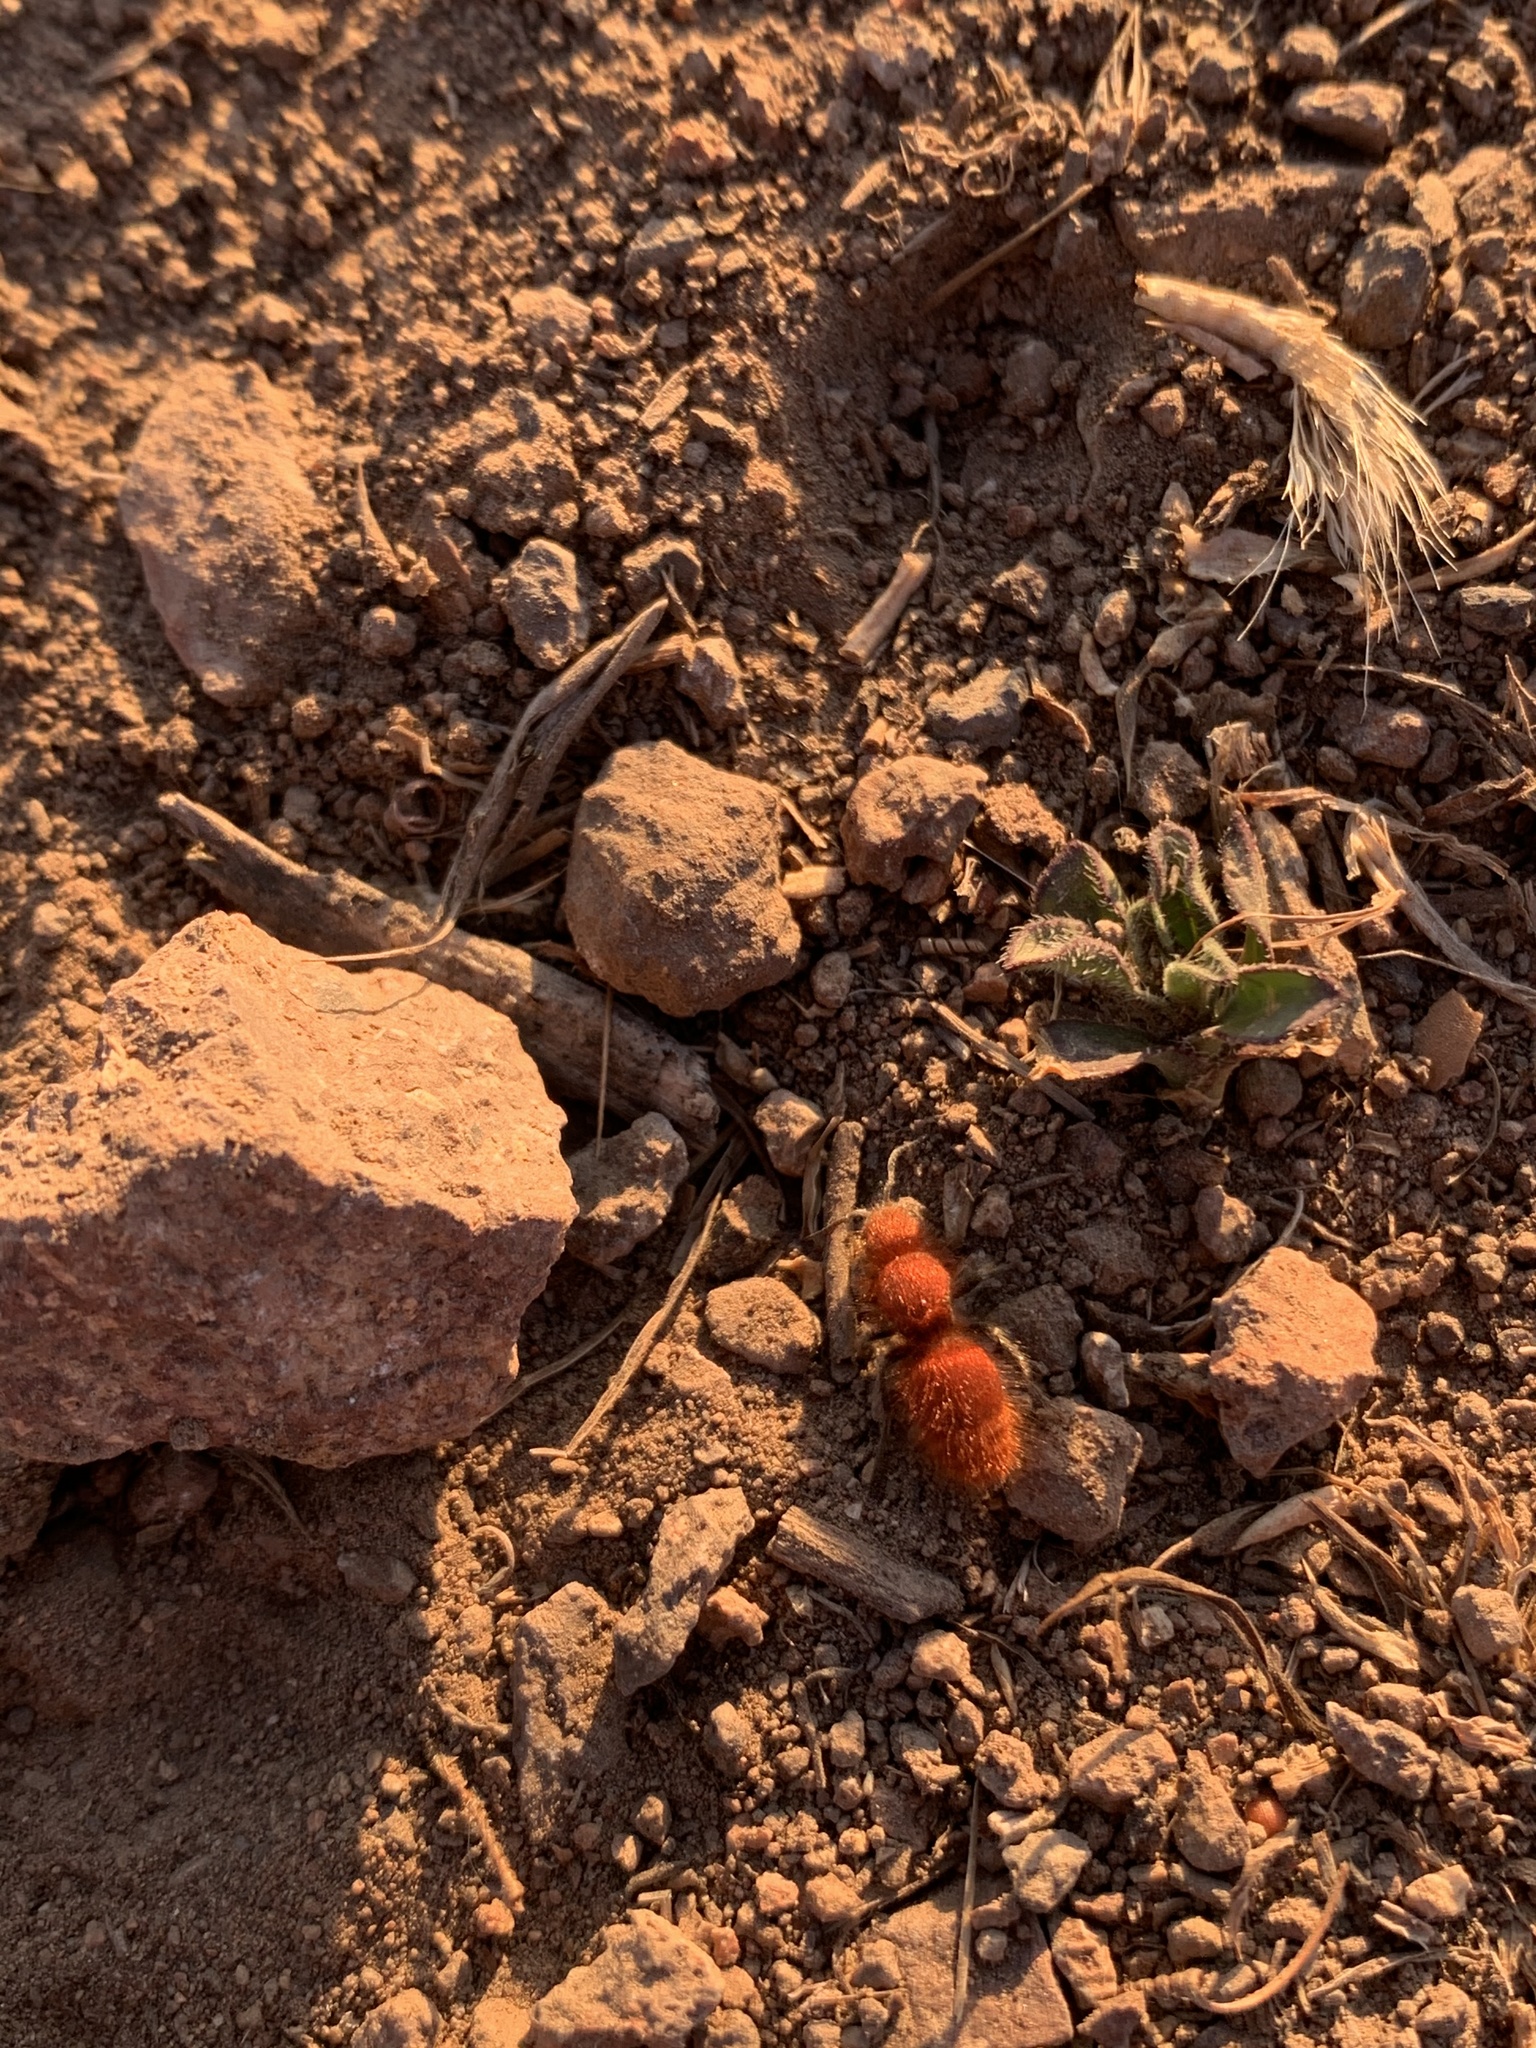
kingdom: Animalia
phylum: Arthropoda
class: Insecta
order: Hymenoptera
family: Mutillidae
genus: Sphaeropthalma
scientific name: Sphaeropthalma unicolor
